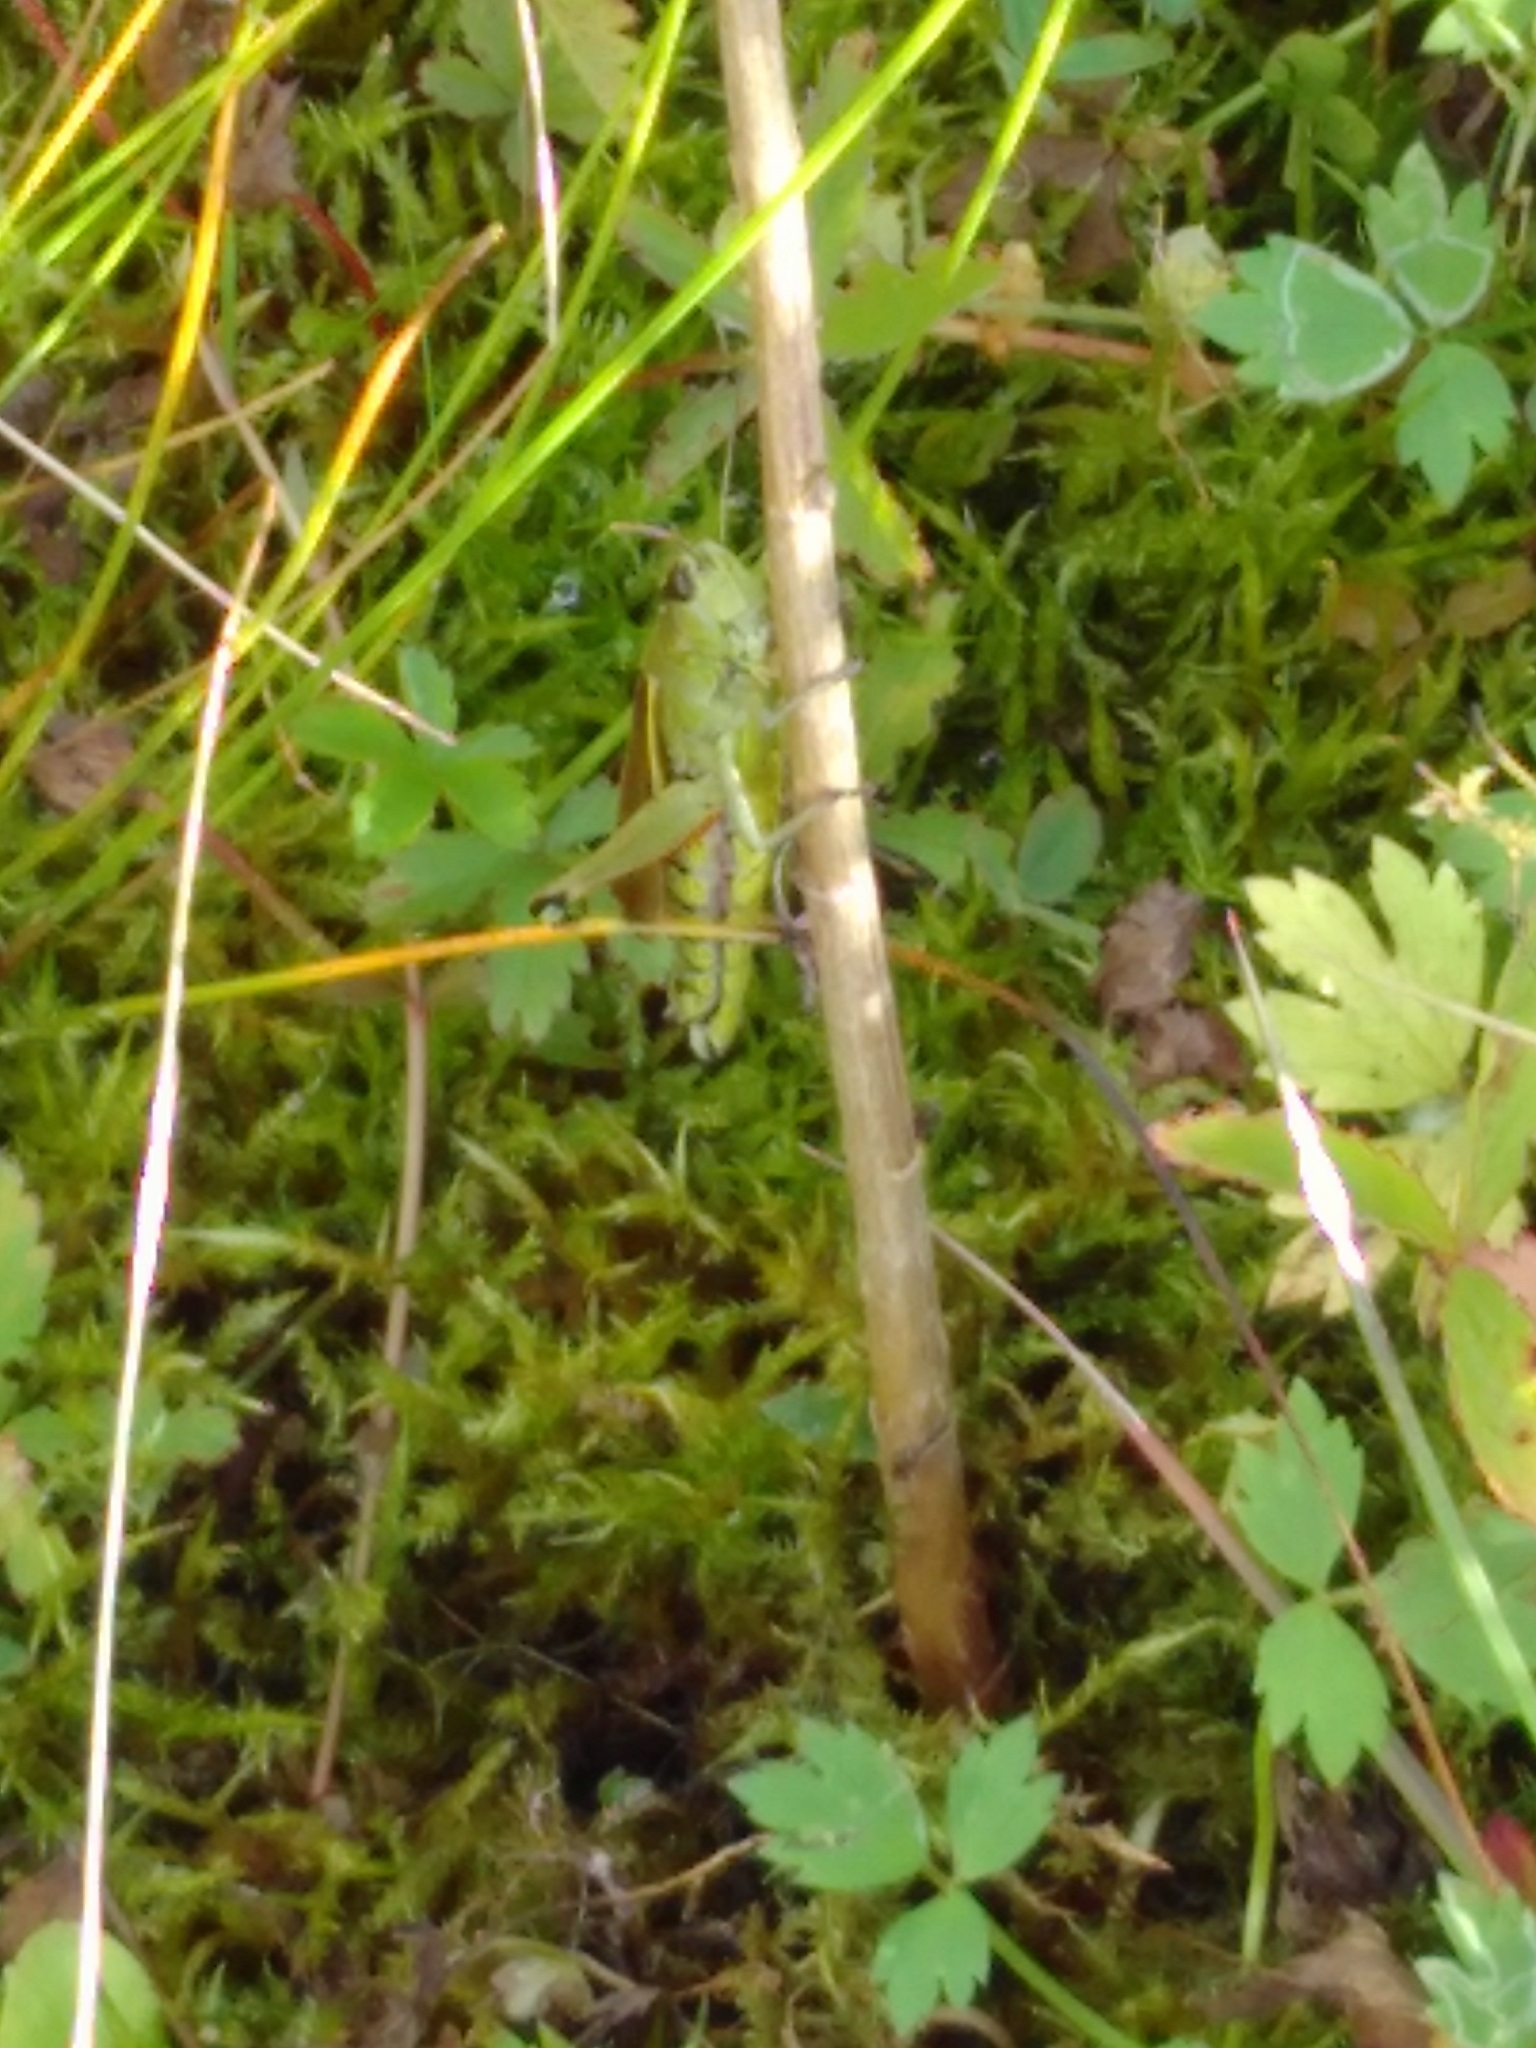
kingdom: Animalia
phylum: Arthropoda
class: Insecta
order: Orthoptera
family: Acrididae
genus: Stethophyma
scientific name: Stethophyma grossum
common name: Large marsh grasshopper
